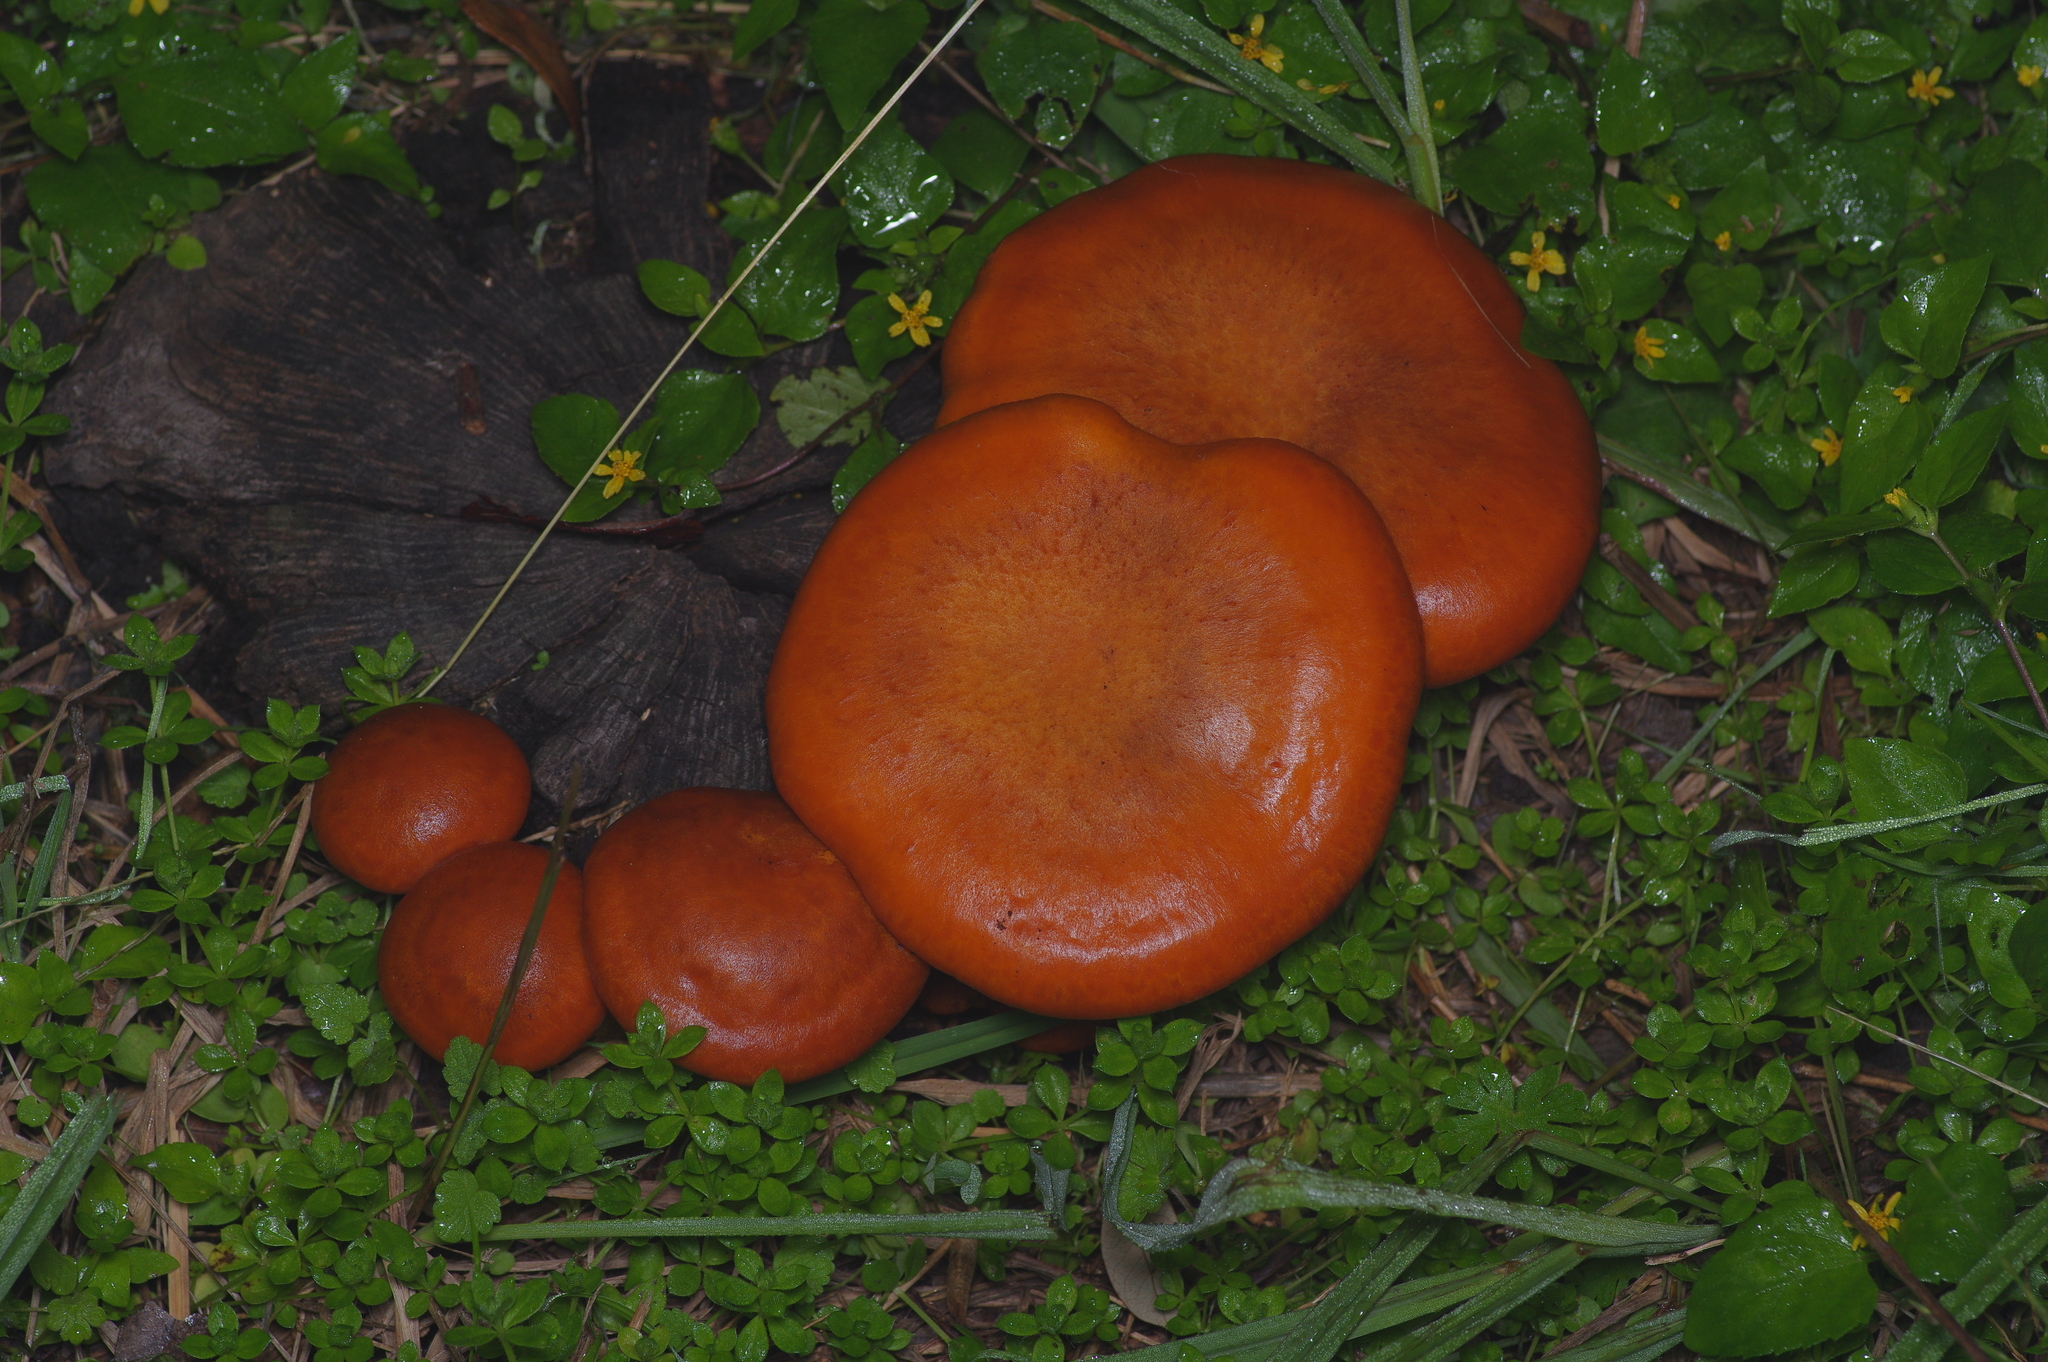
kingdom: Fungi
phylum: Basidiomycota
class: Agaricomycetes
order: Agaricales
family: Omphalotaceae
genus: Omphalotus
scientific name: Omphalotus subilludens
